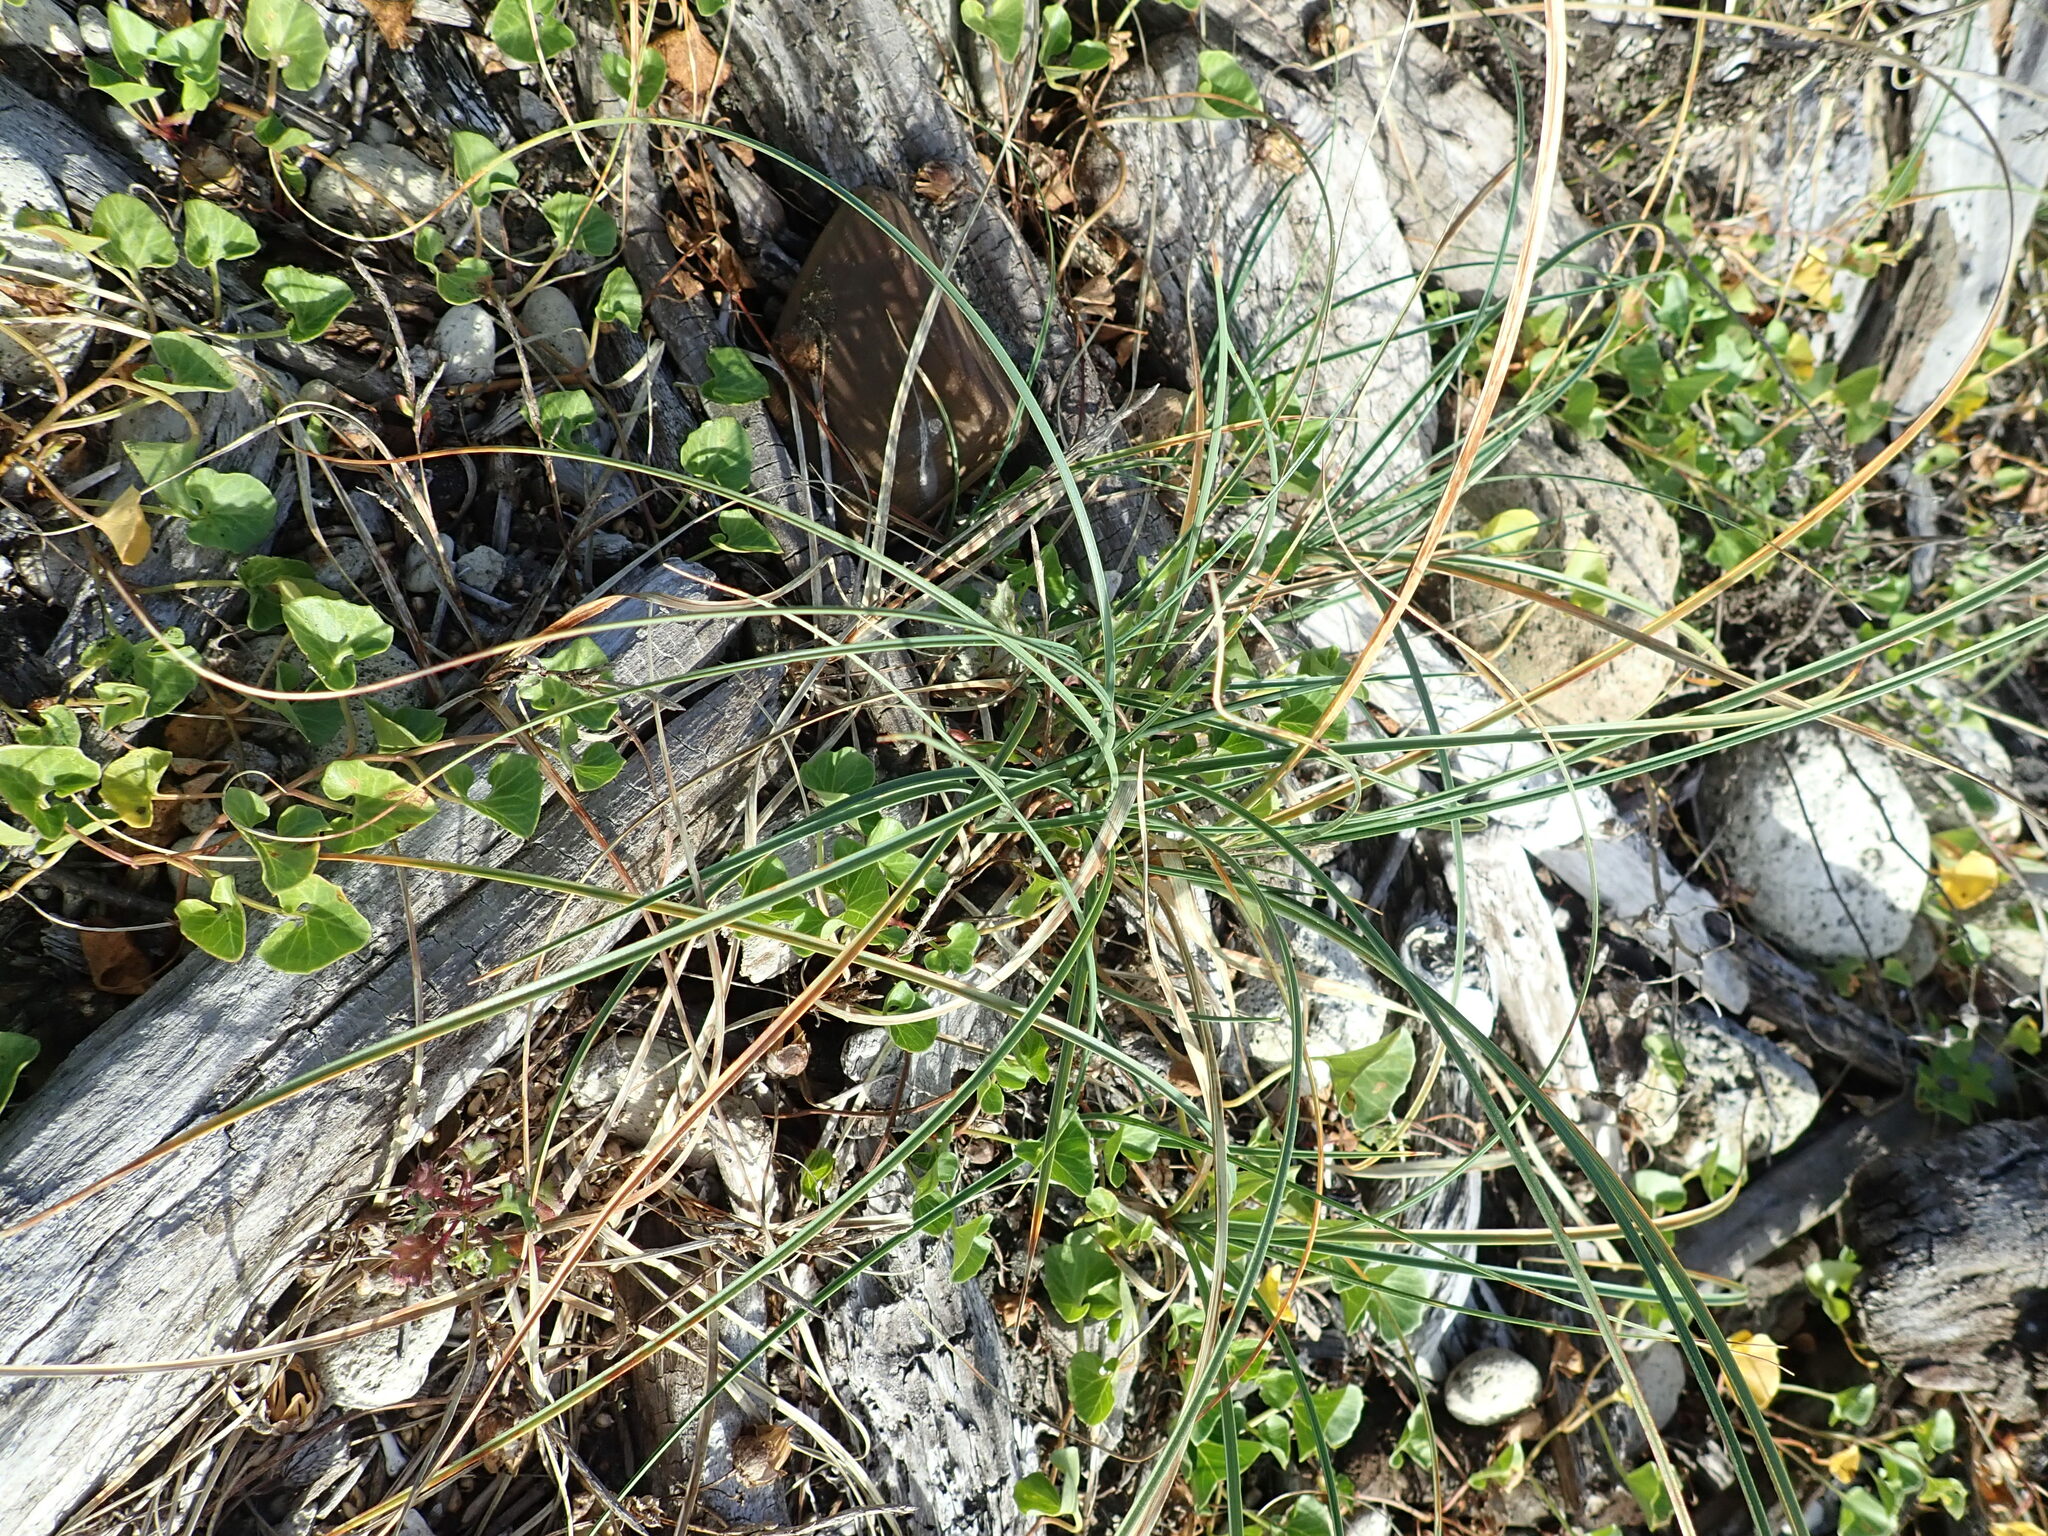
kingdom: Plantae
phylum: Tracheophyta
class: Liliopsida
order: Poales
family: Cyperaceae
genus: Carex
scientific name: Carex pumila
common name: Dwarf sedge
